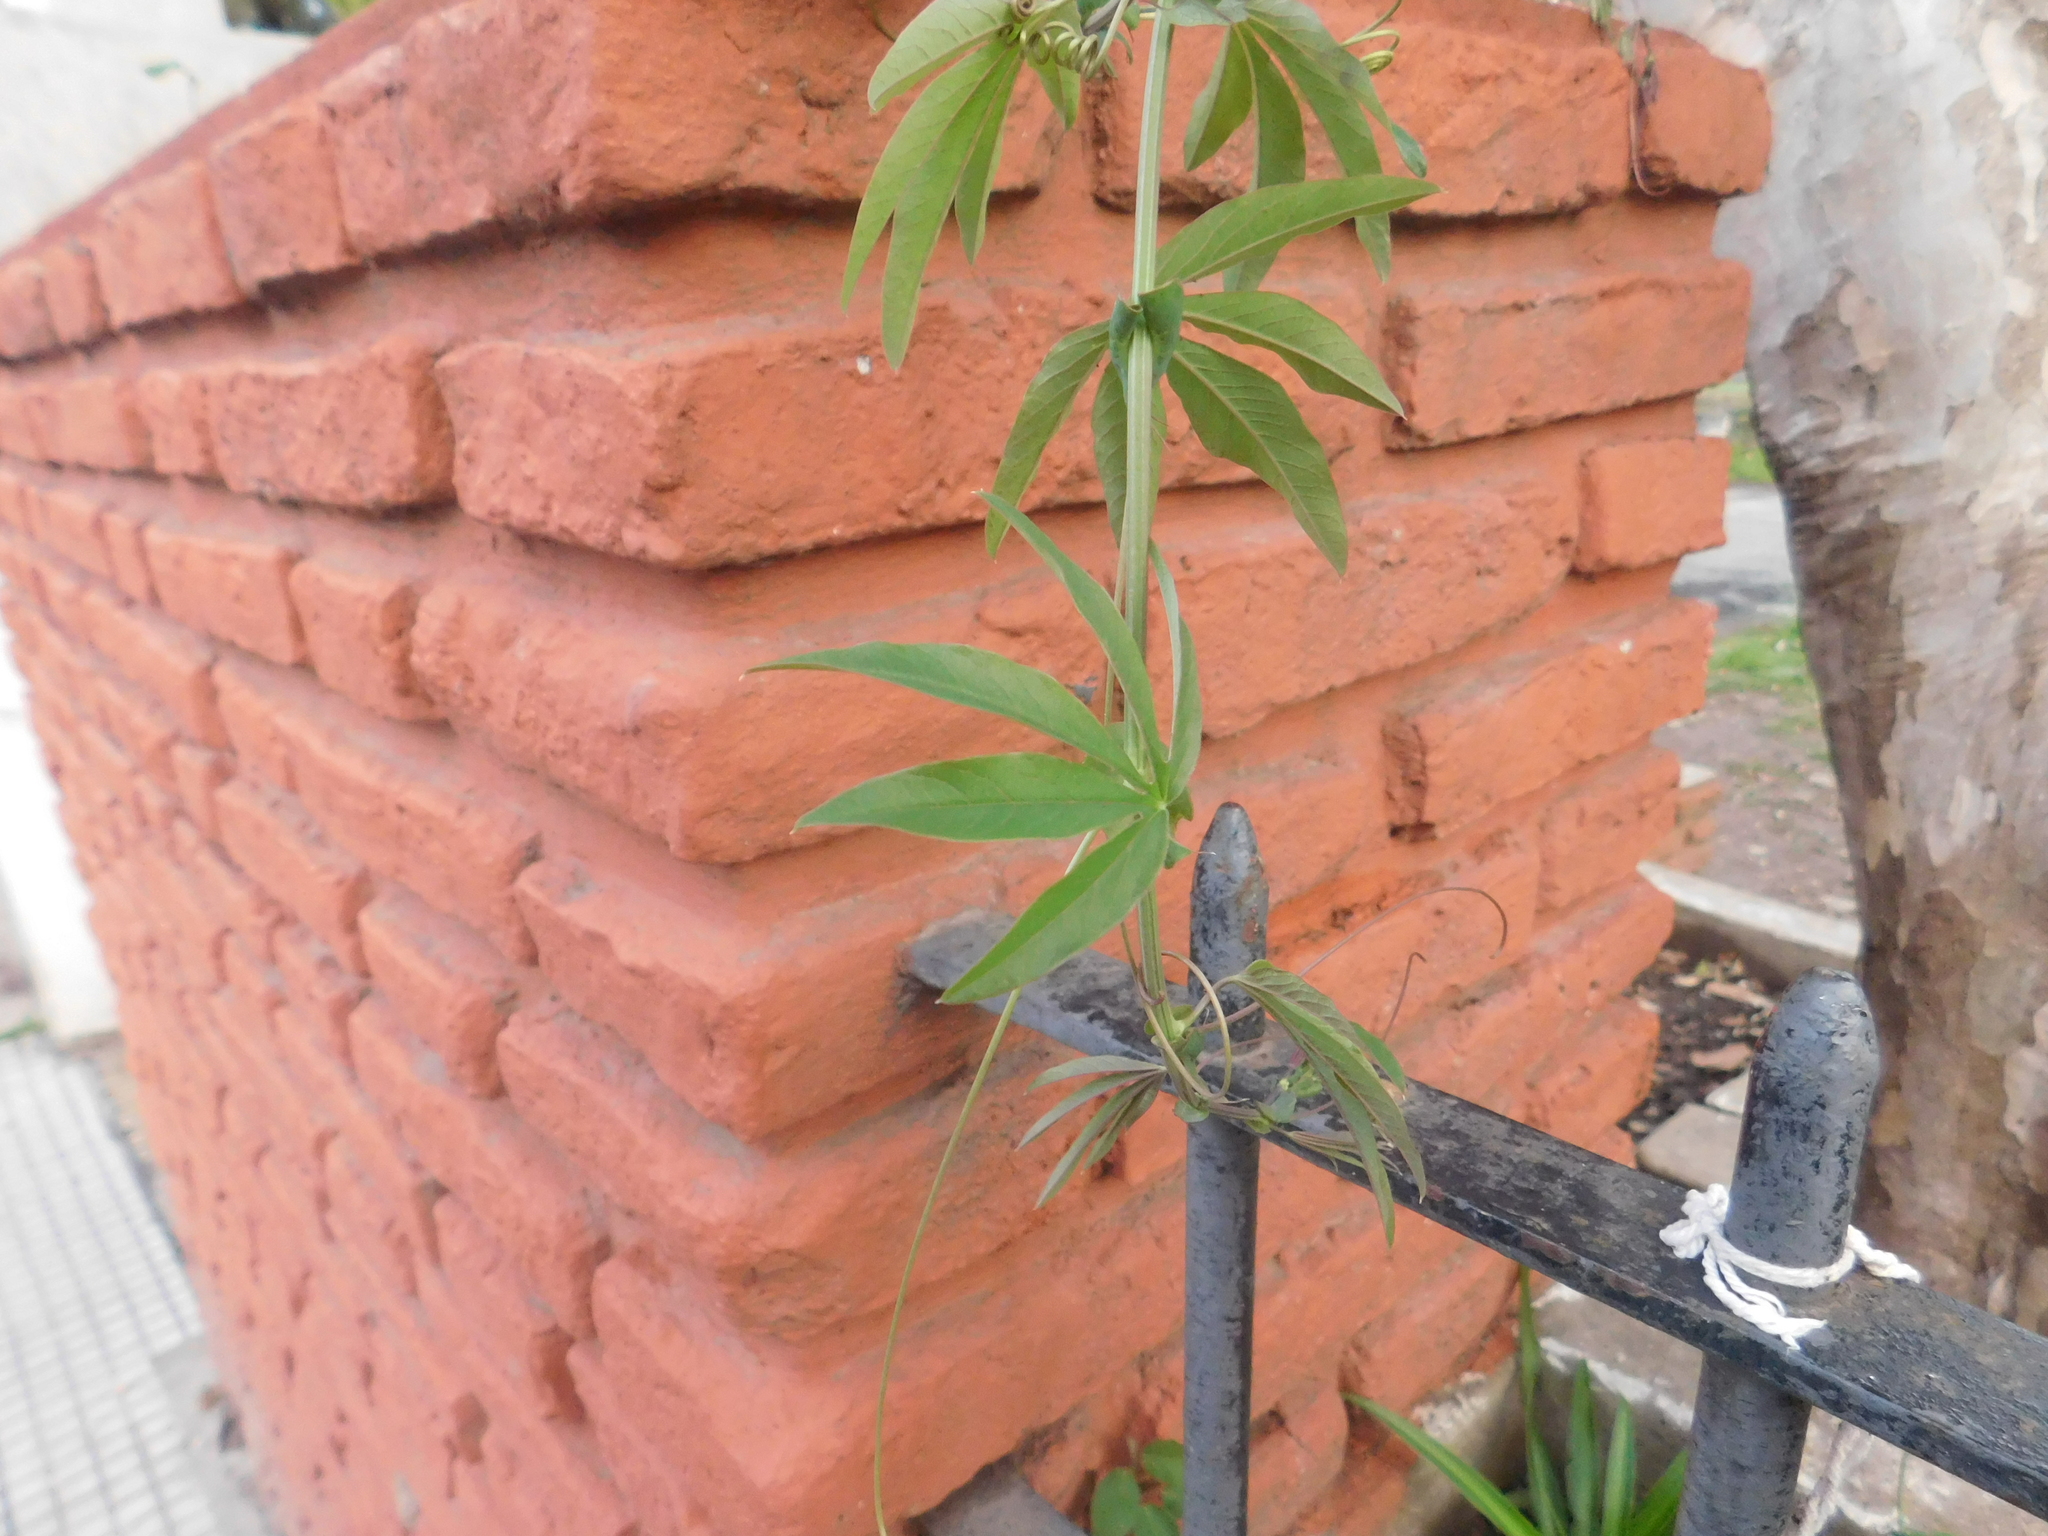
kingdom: Plantae
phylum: Tracheophyta
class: Magnoliopsida
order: Malpighiales
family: Passifloraceae
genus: Passiflora
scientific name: Passiflora caerulea
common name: Blue passionflower
